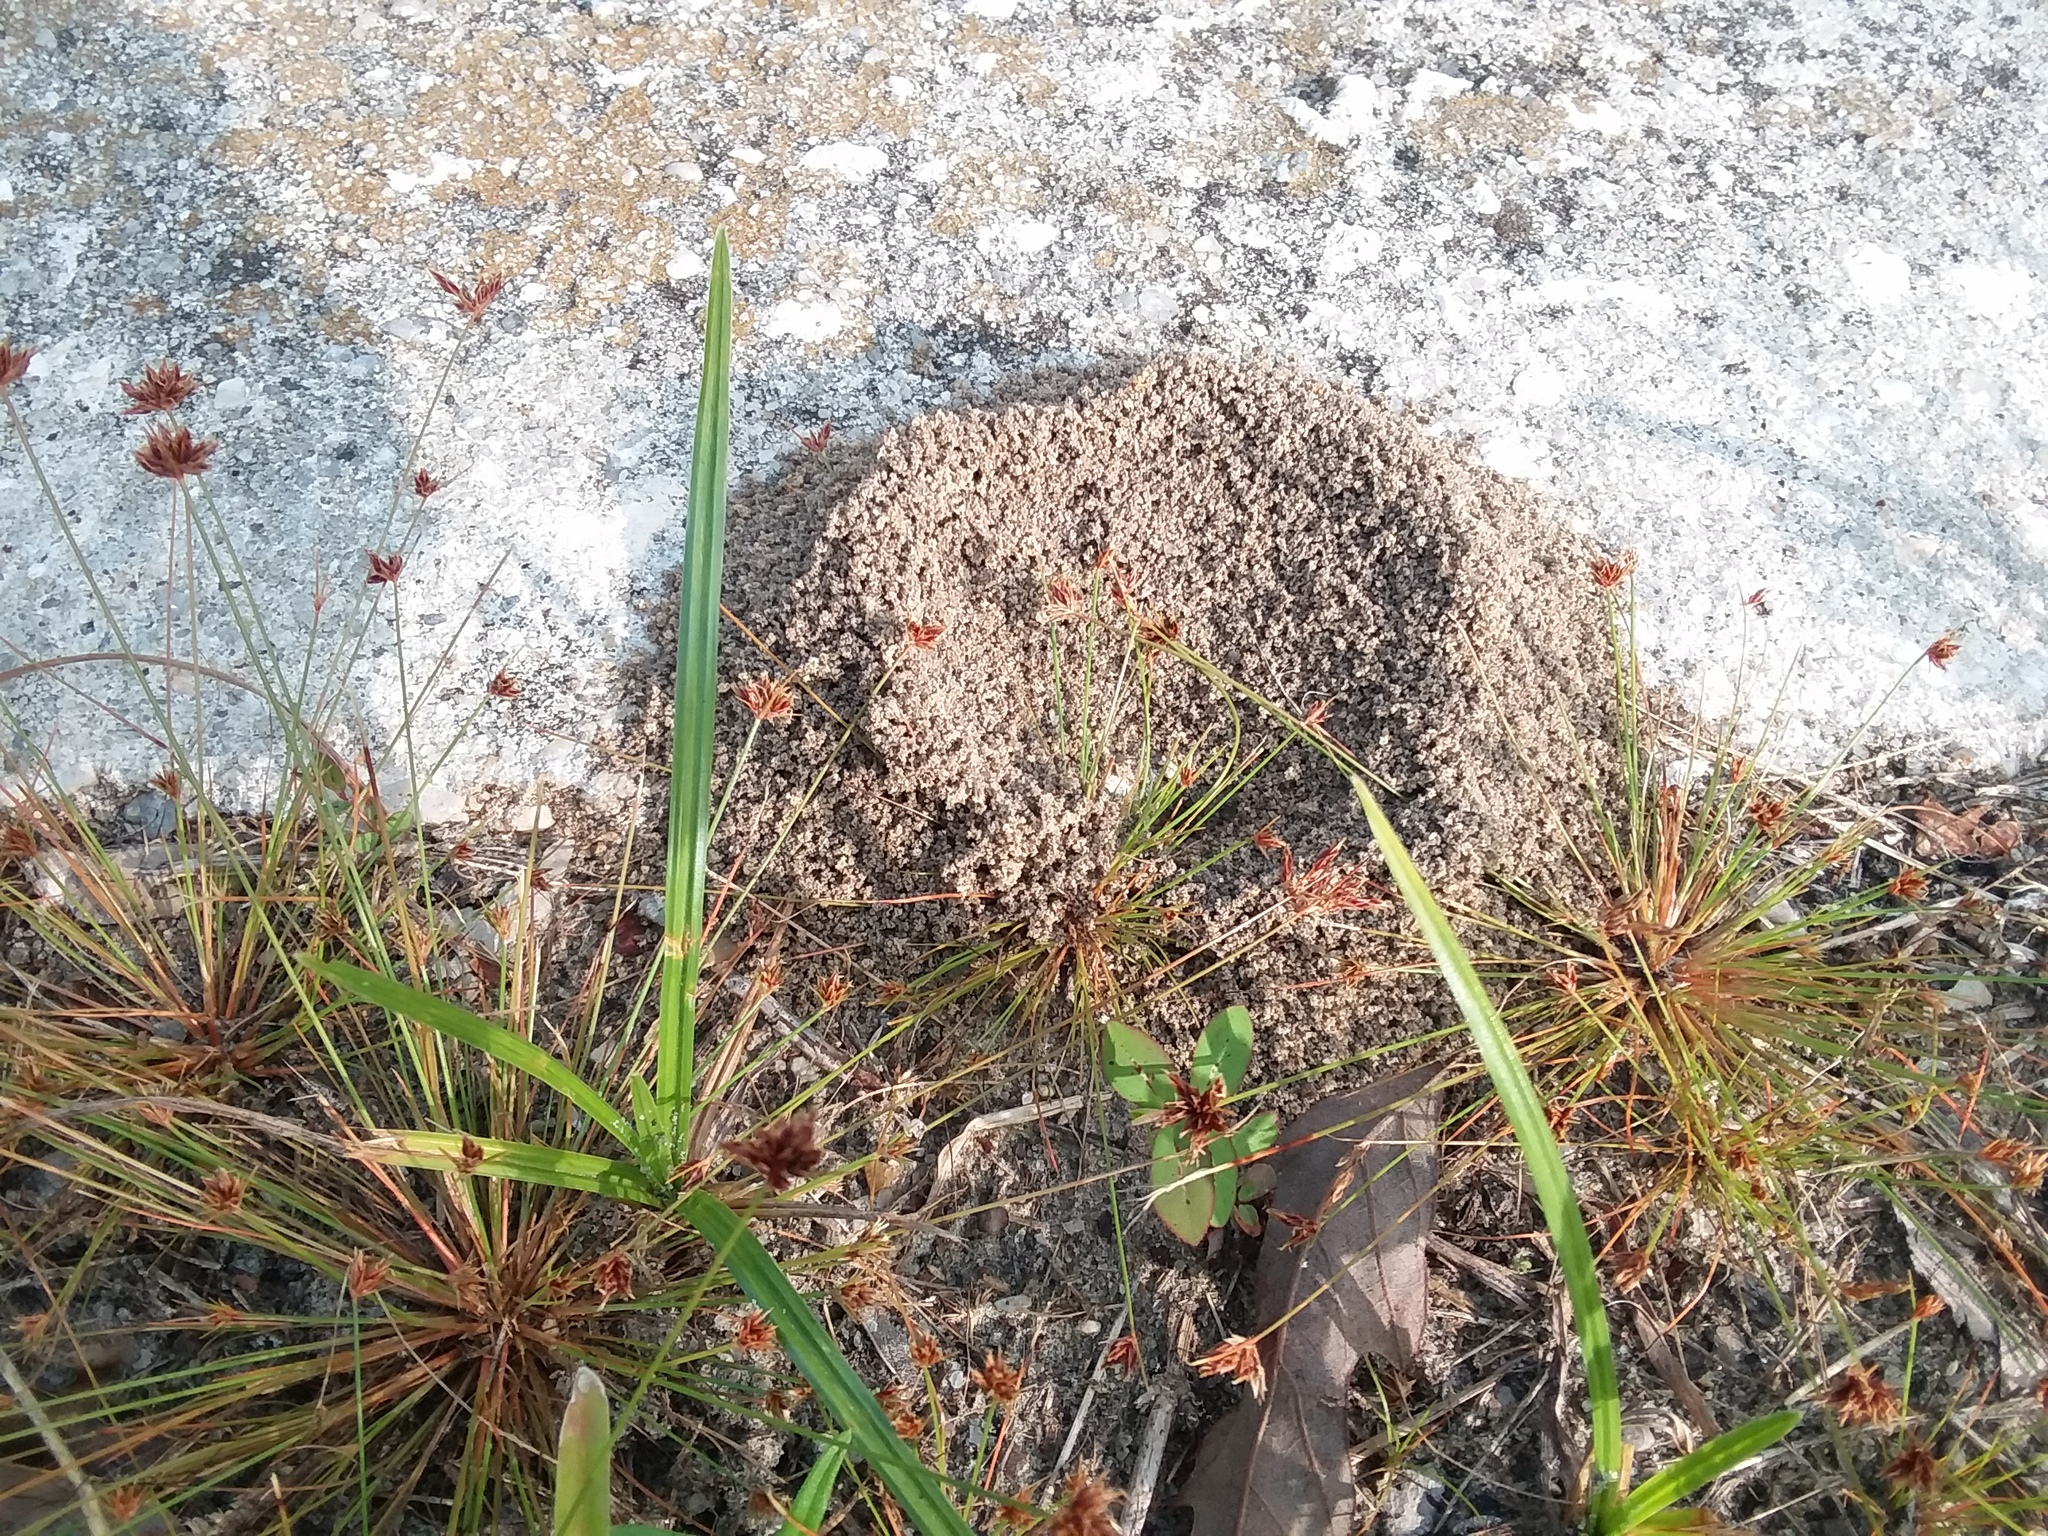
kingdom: Animalia
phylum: Arthropoda
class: Insecta
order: Hymenoptera
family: Formicidae
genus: Dorymyrmex
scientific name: Dorymyrmex bureni
